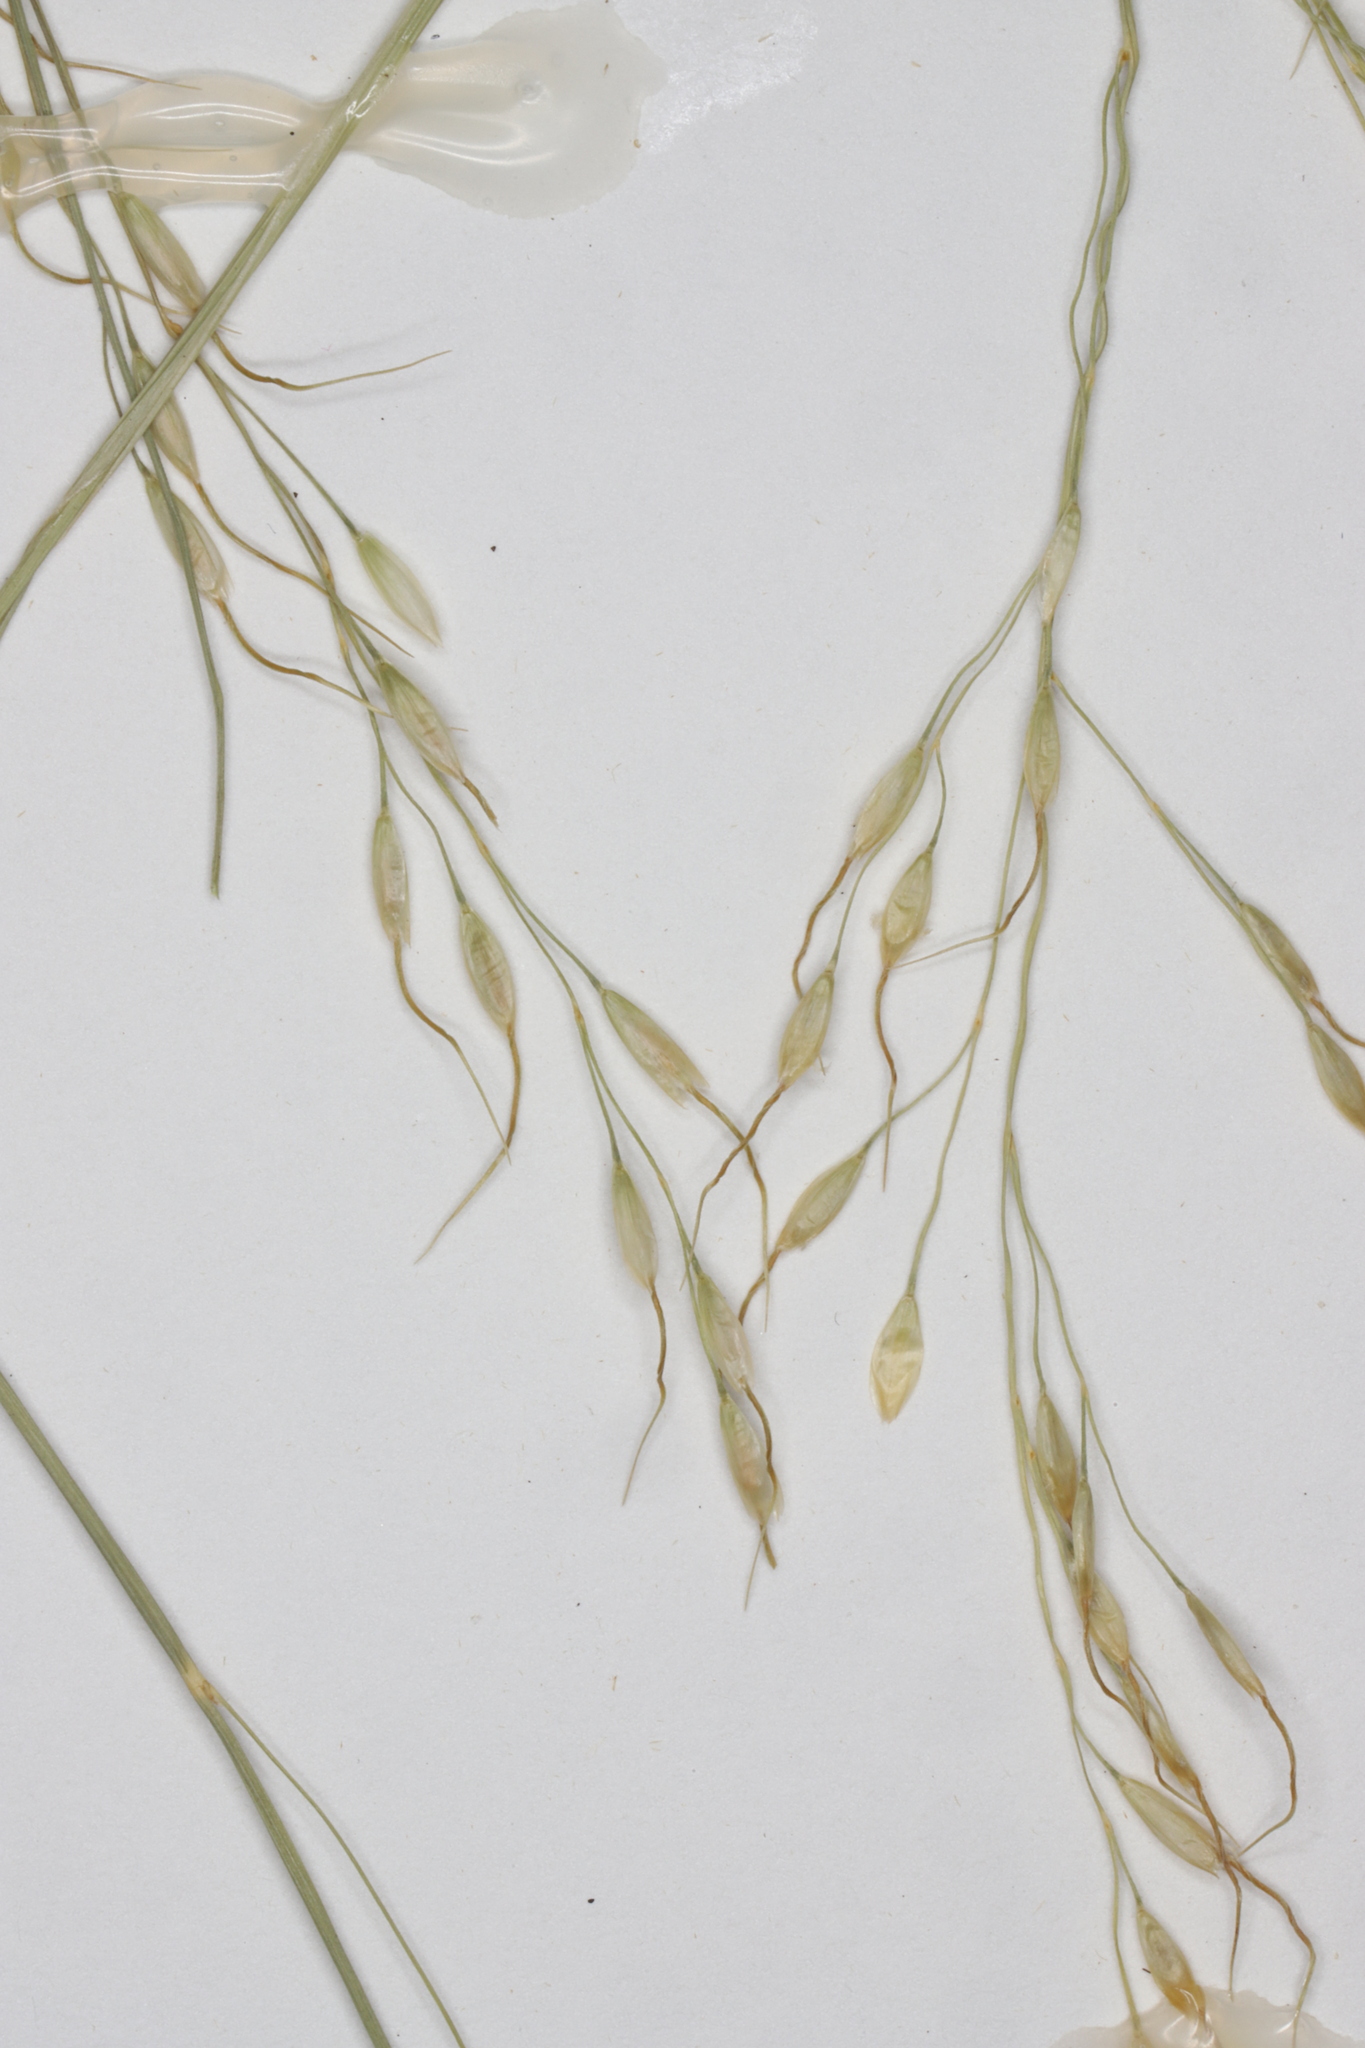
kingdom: Plantae
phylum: Tracheophyta
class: Liliopsida
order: Poales
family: Poaceae
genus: Piptatheropsis
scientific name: Piptatheropsis canadensis
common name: Canada mountain ricegrass
